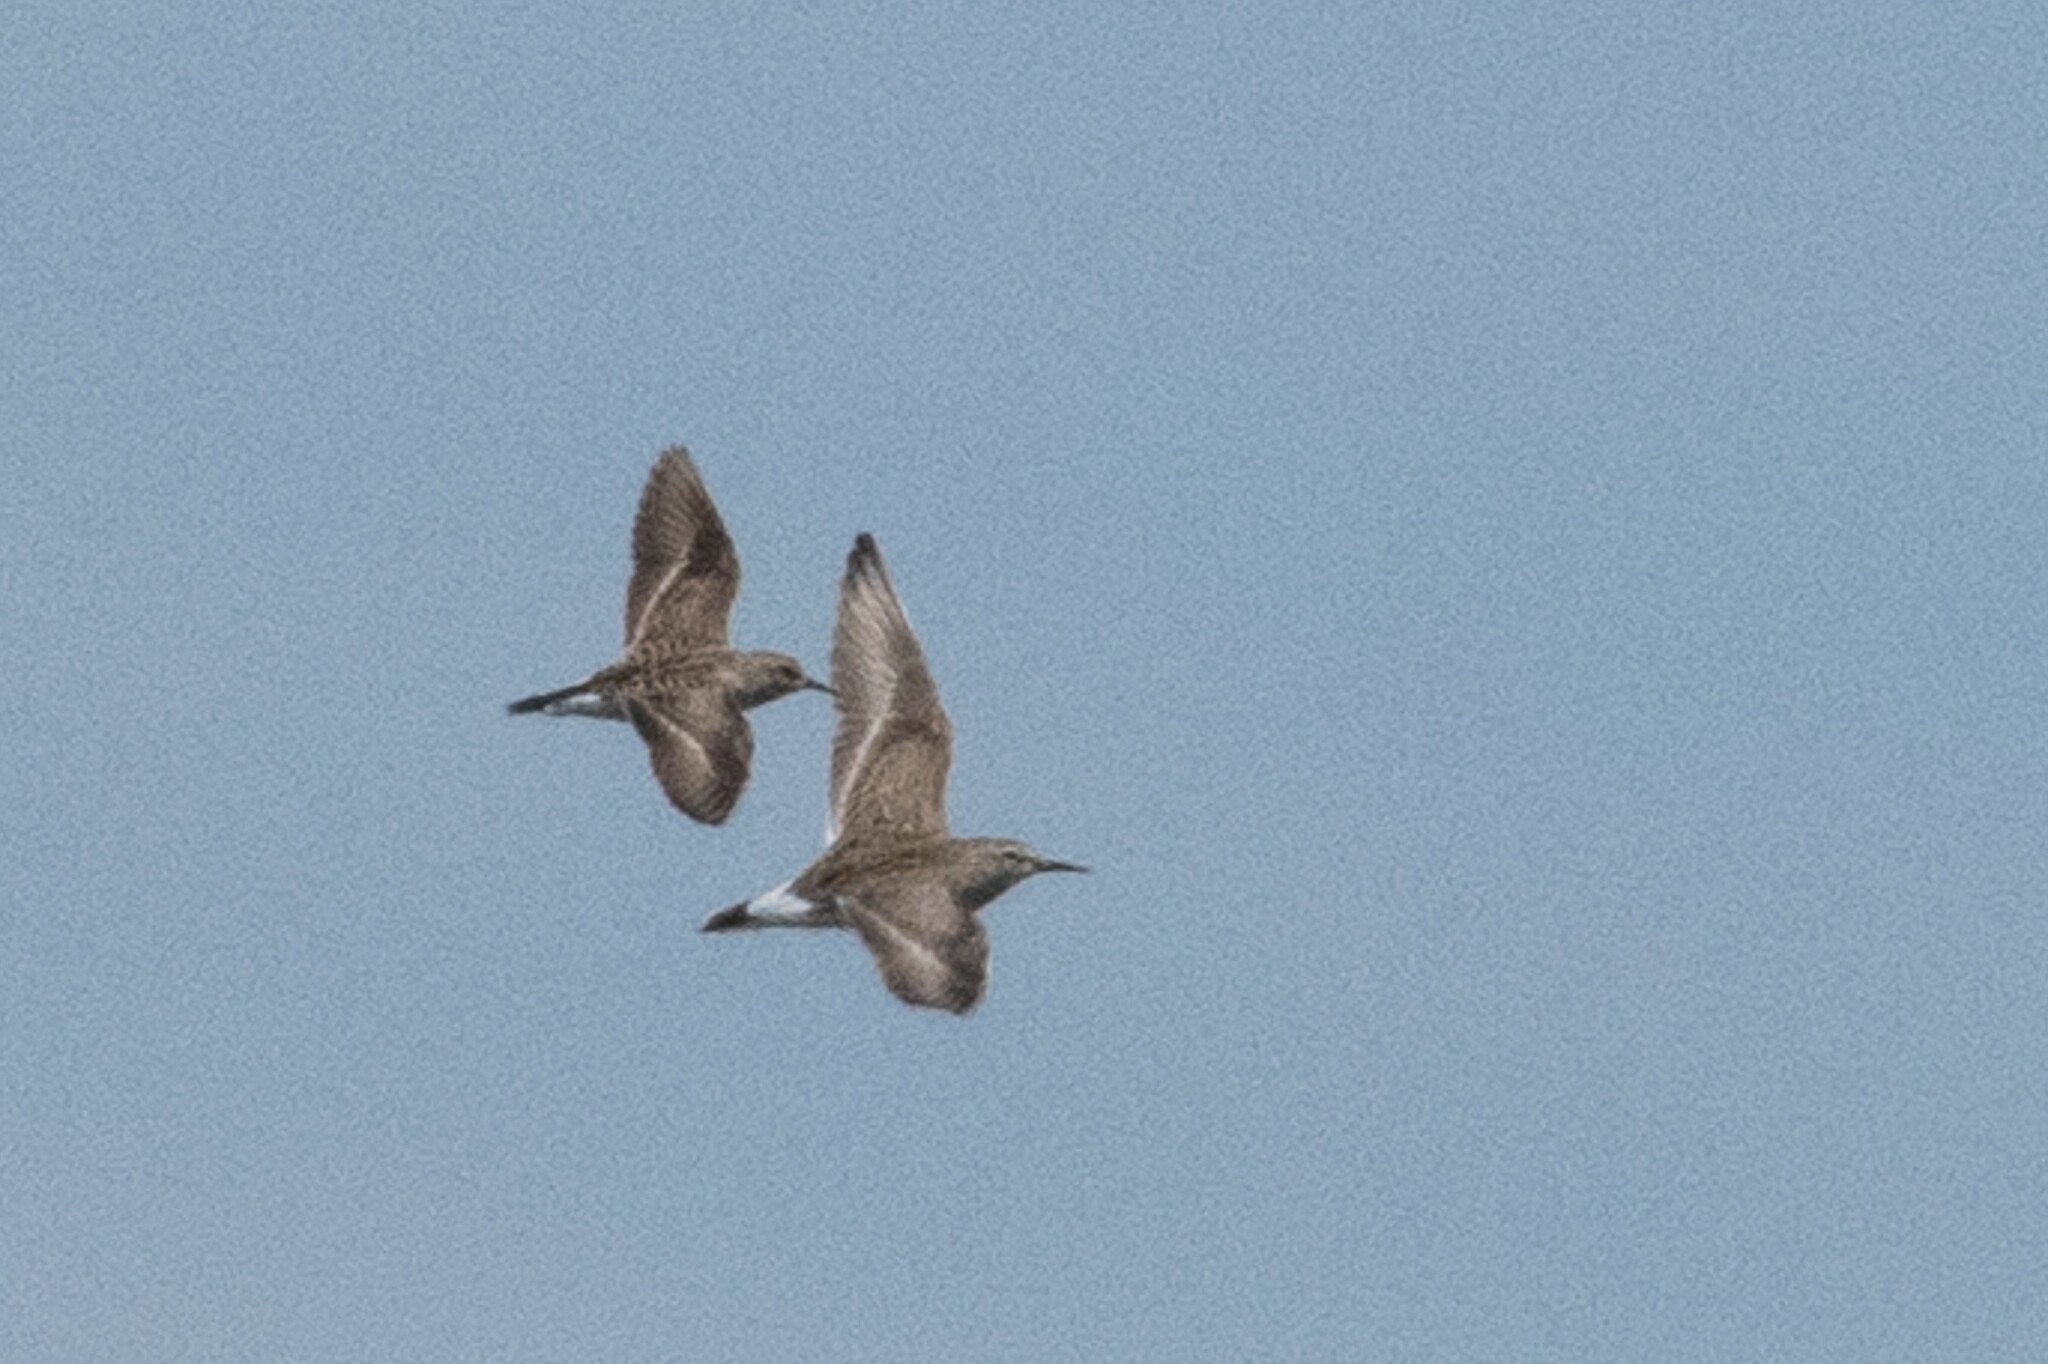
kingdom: Animalia
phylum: Chordata
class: Aves
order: Charadriiformes
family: Scolopacidae
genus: Calidris
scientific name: Calidris fuscicollis
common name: White-rumped sandpiper
